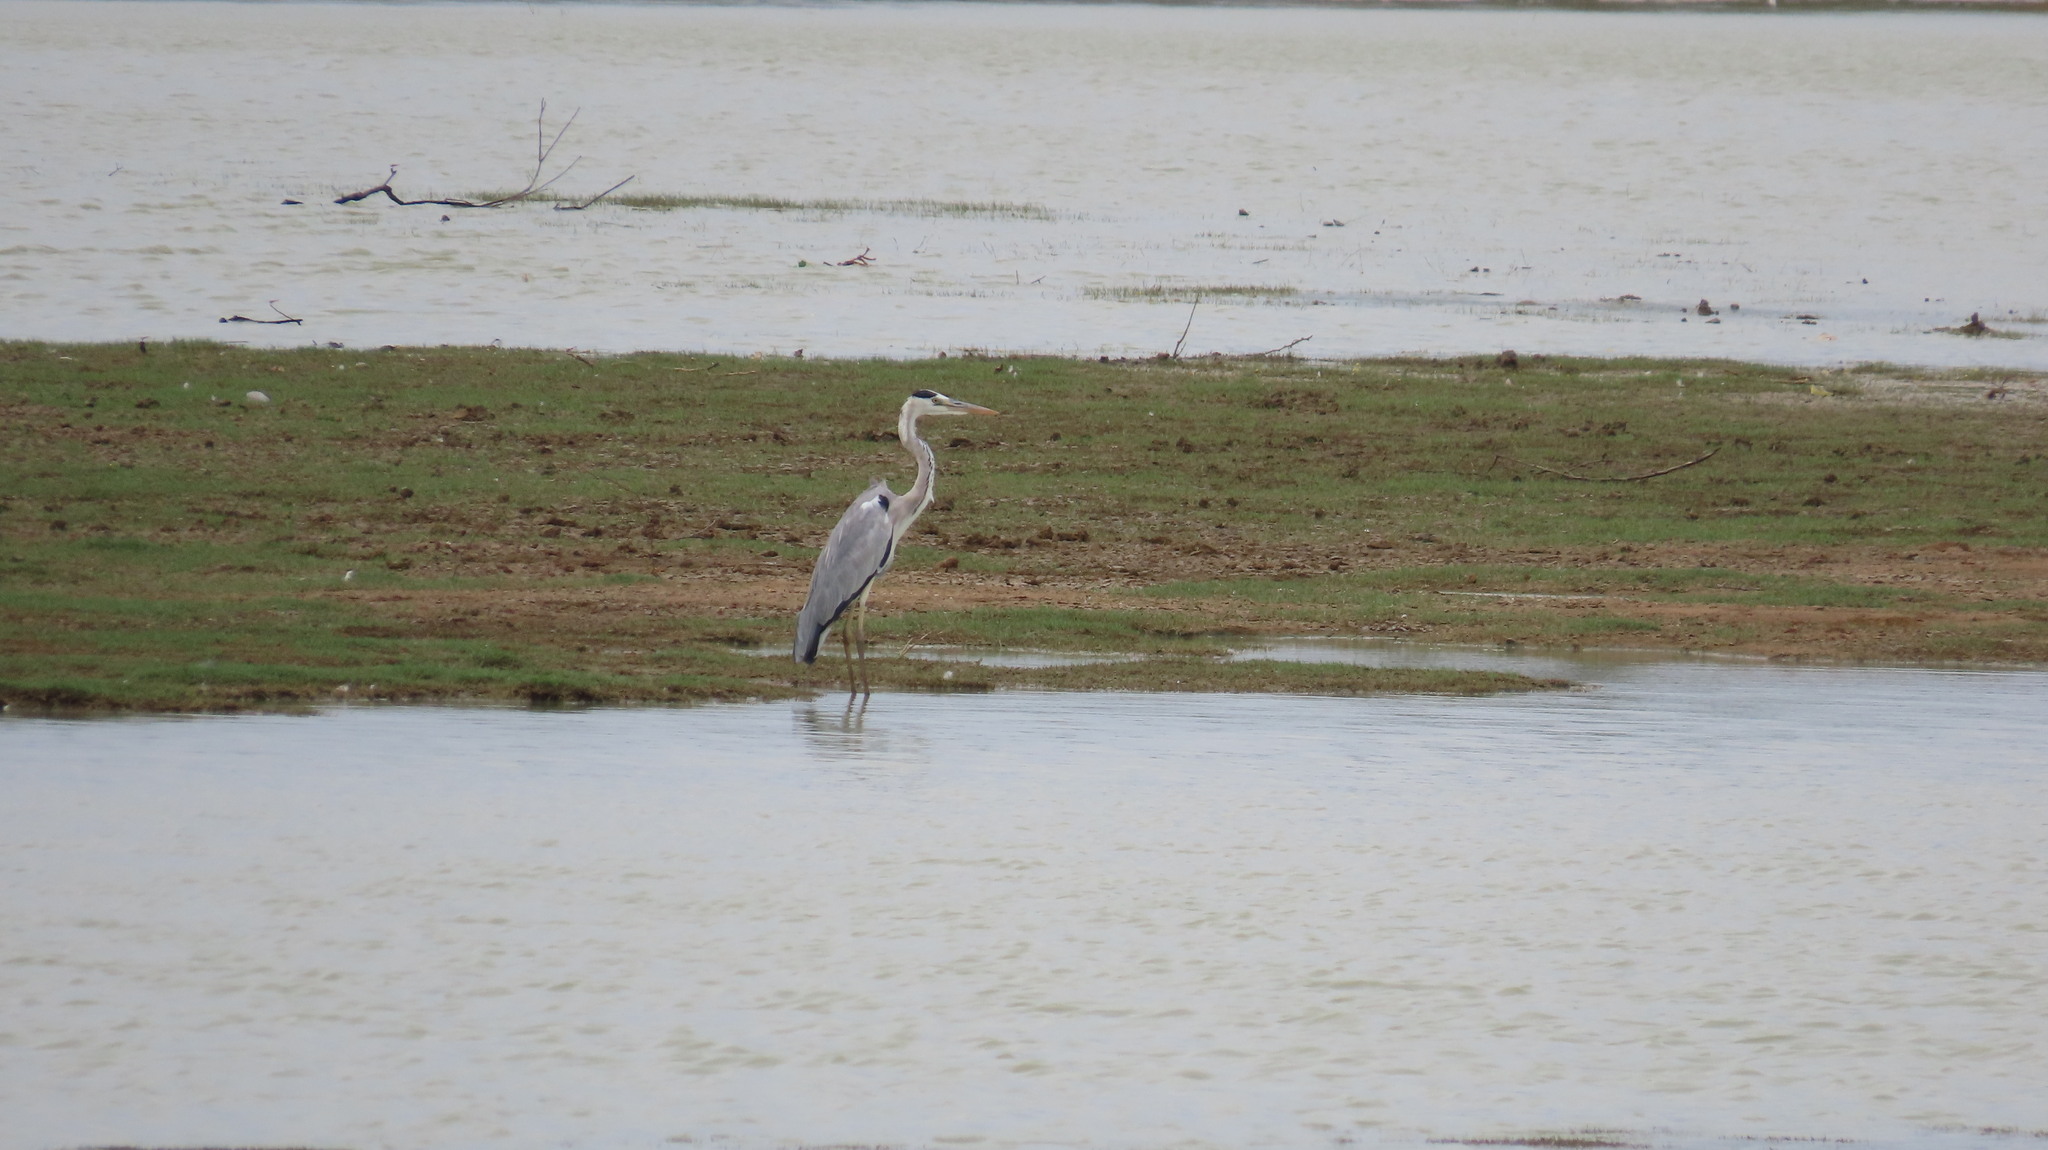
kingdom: Animalia
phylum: Chordata
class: Aves
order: Pelecaniformes
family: Ardeidae
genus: Ardea
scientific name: Ardea cinerea
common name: Grey heron
